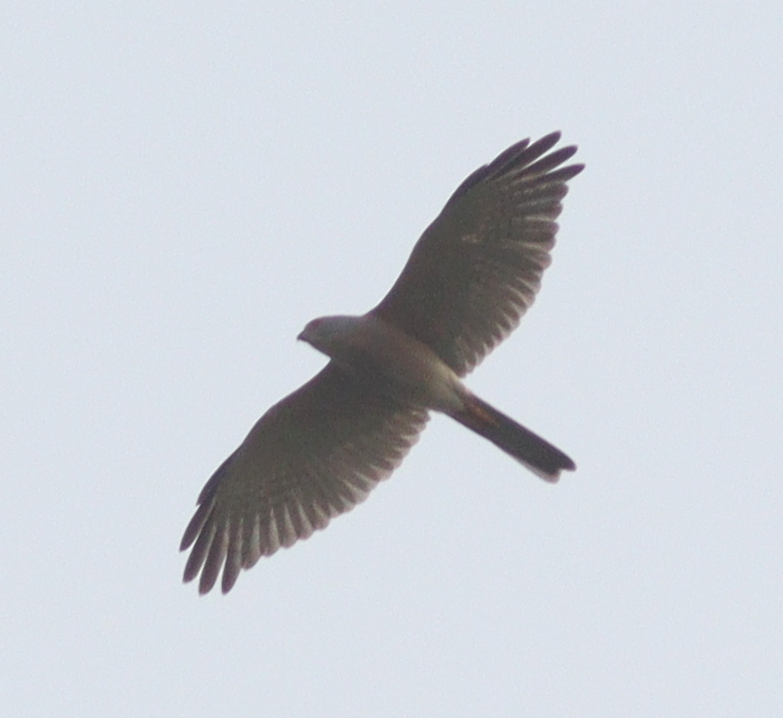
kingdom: Animalia
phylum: Chordata
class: Aves
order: Accipitriformes
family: Accipitridae
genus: Accipiter
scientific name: Accipiter badius
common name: Shikra
